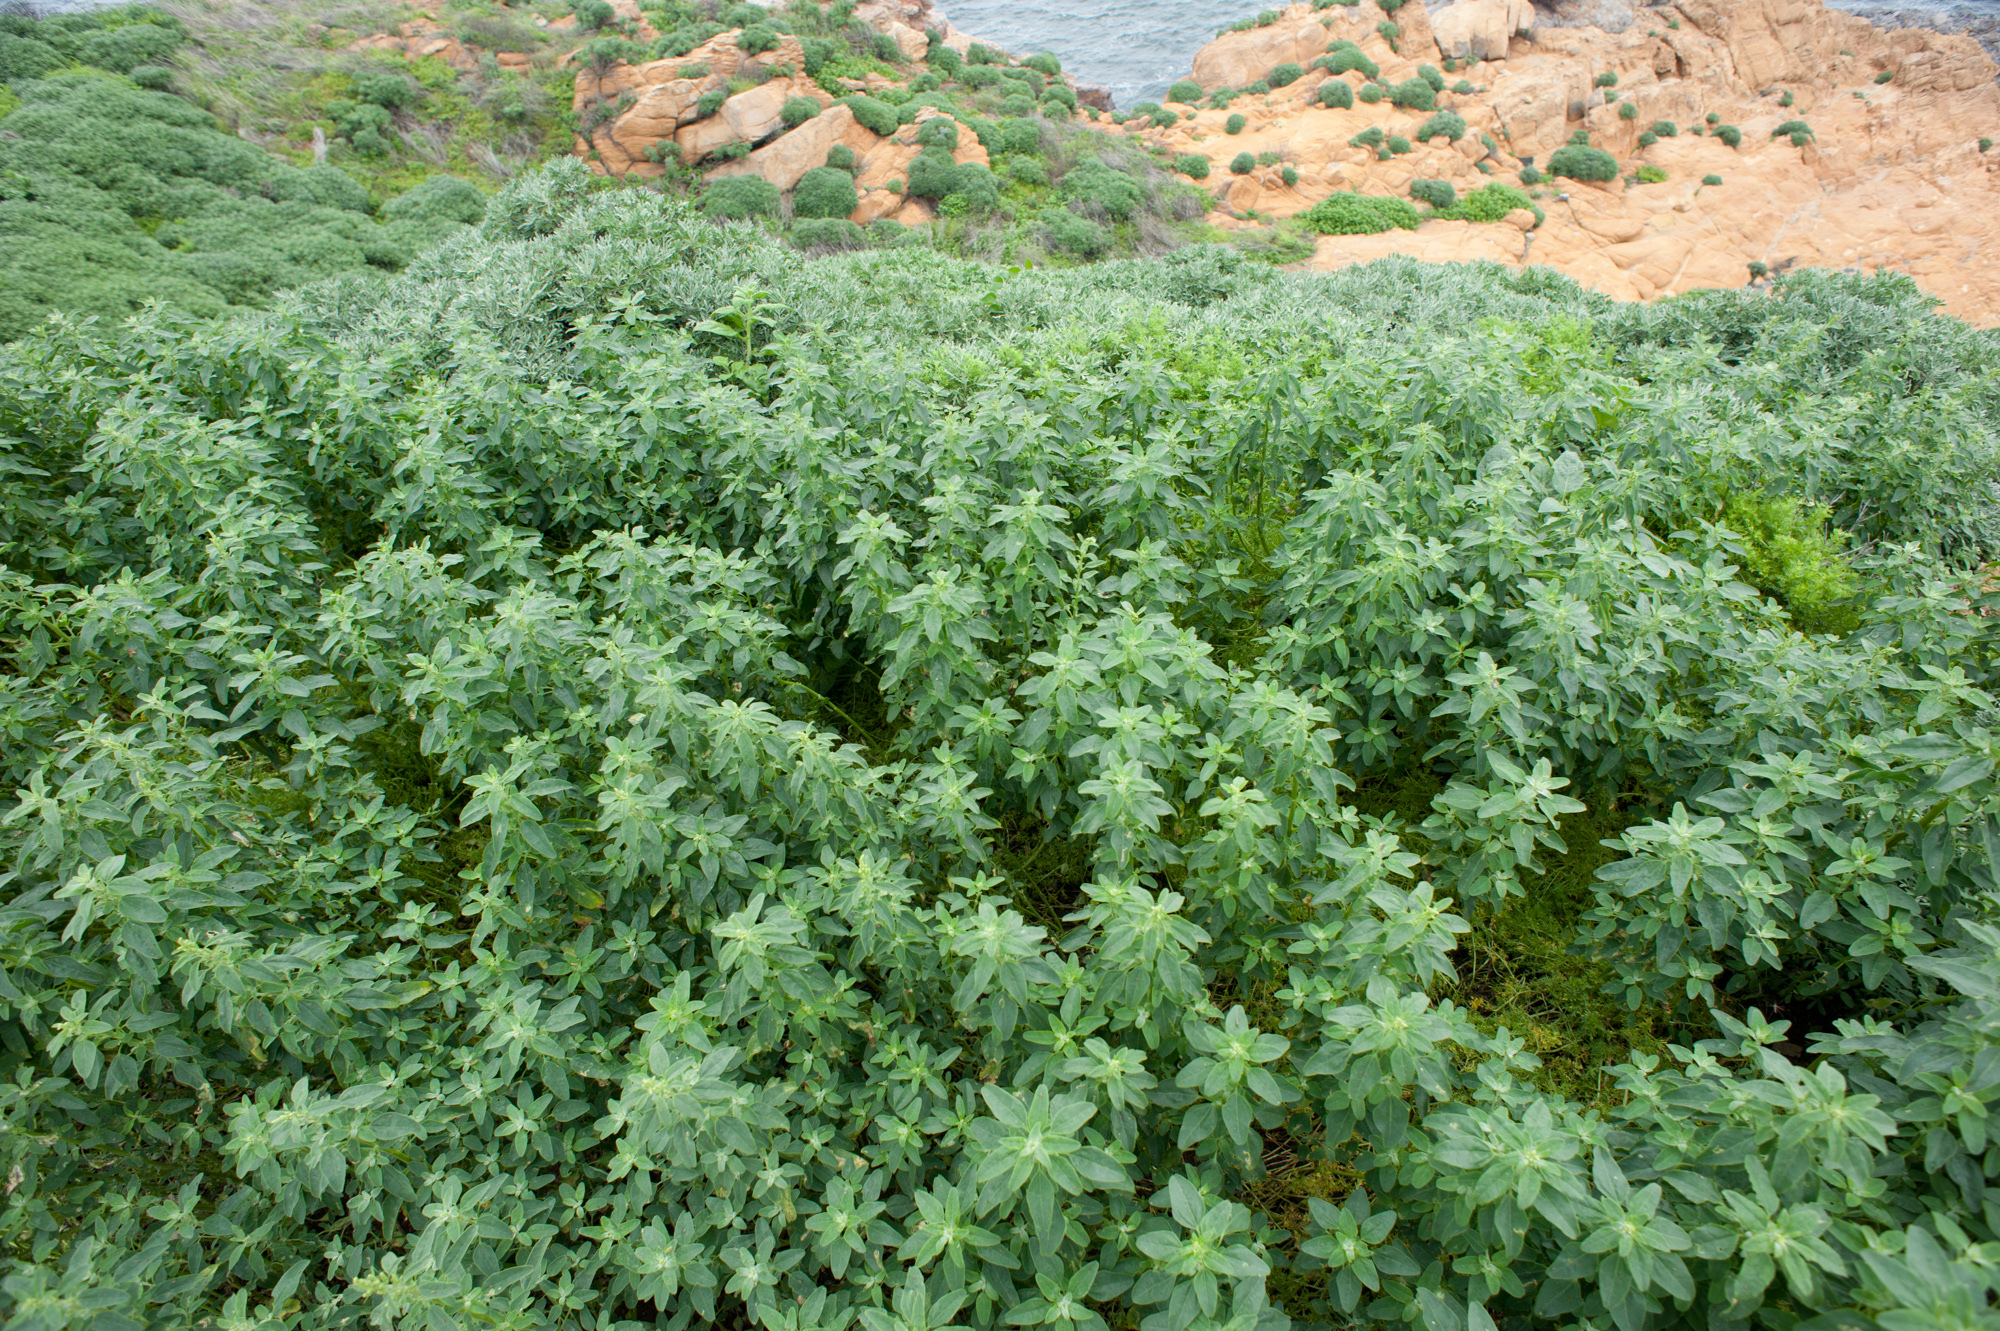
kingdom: Plantae
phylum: Tracheophyta
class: Magnoliopsida
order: Caryophyllales
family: Amaranthaceae
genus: Chenopodium
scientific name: Chenopodium acuminatum
